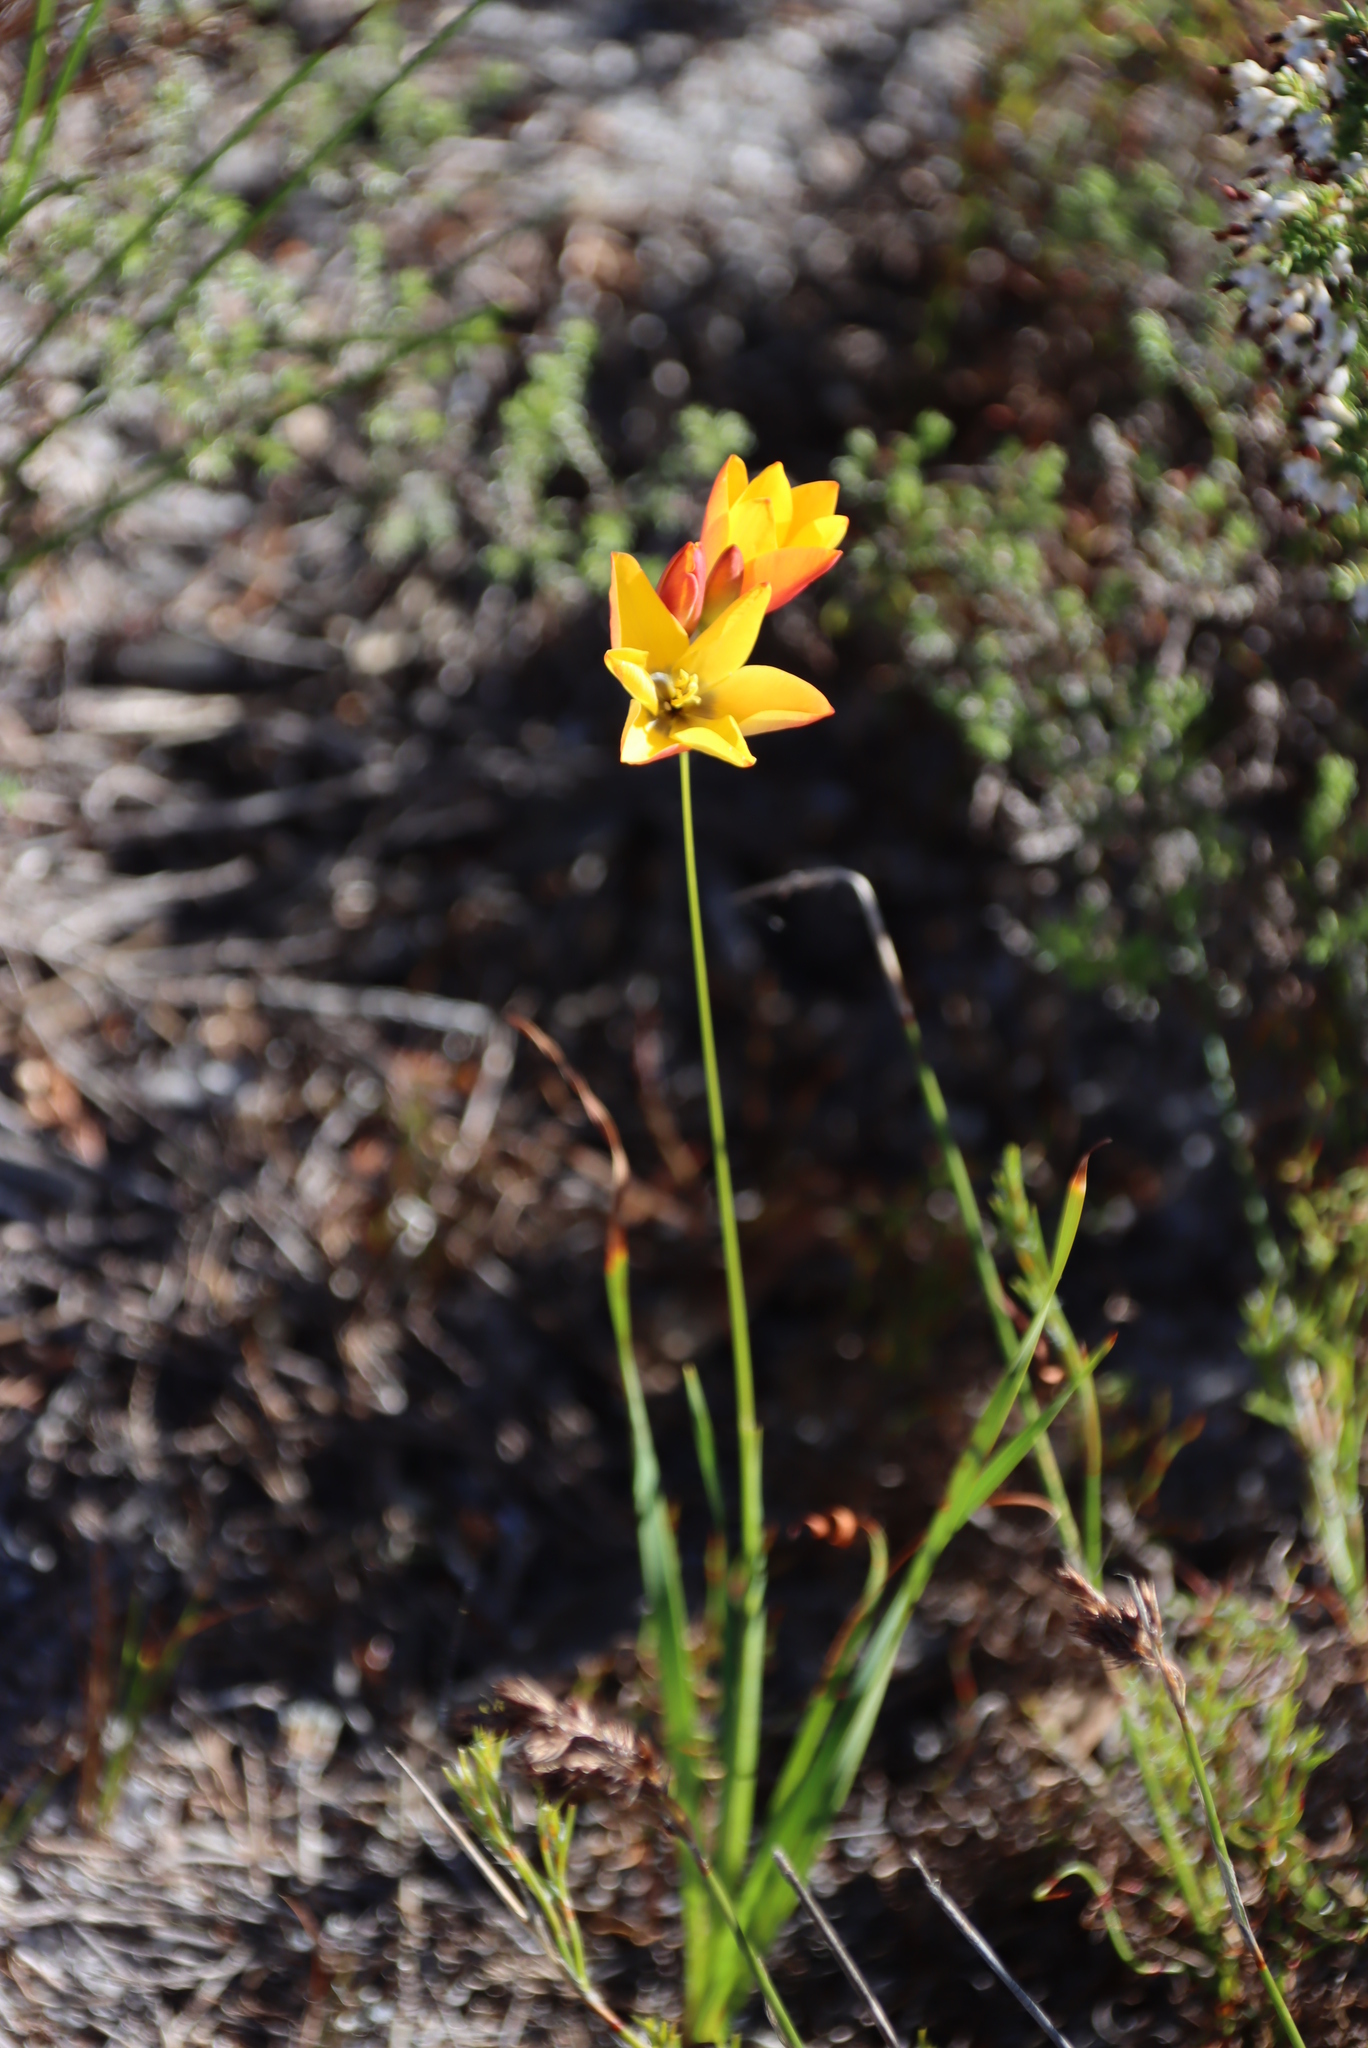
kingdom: Plantae
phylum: Tracheophyta
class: Liliopsida
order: Asparagales
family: Iridaceae
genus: Ixia
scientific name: Ixia dubia
